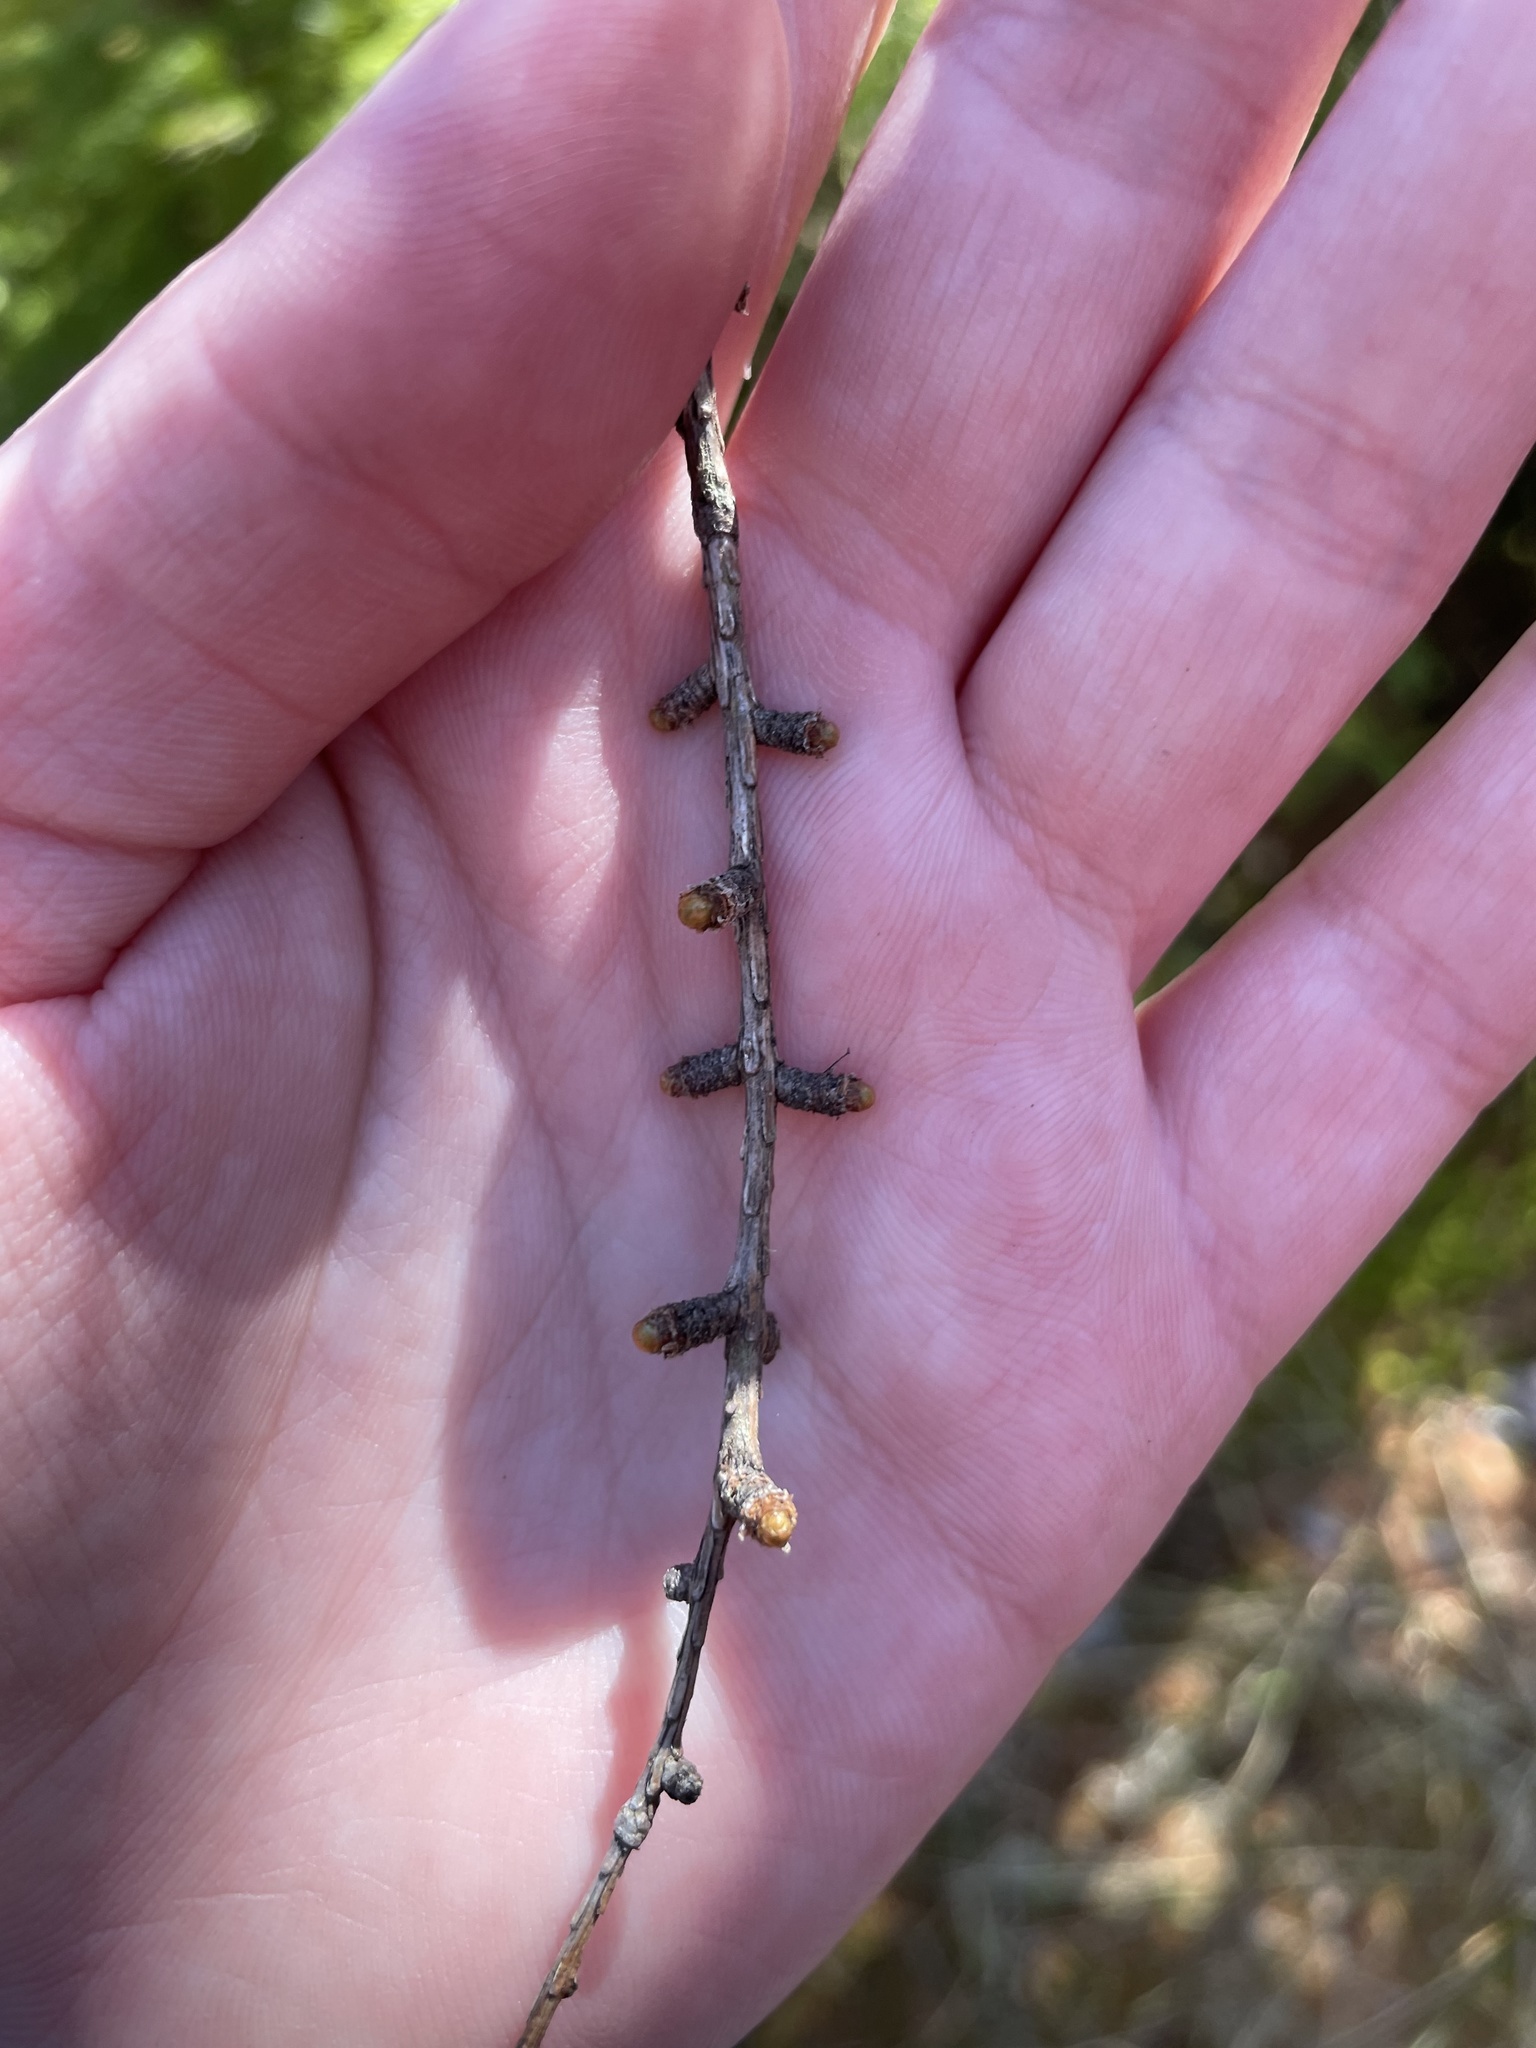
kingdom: Plantae
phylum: Tracheophyta
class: Pinopsida
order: Pinales
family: Pinaceae
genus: Larix
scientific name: Larix laricina
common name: American larch
